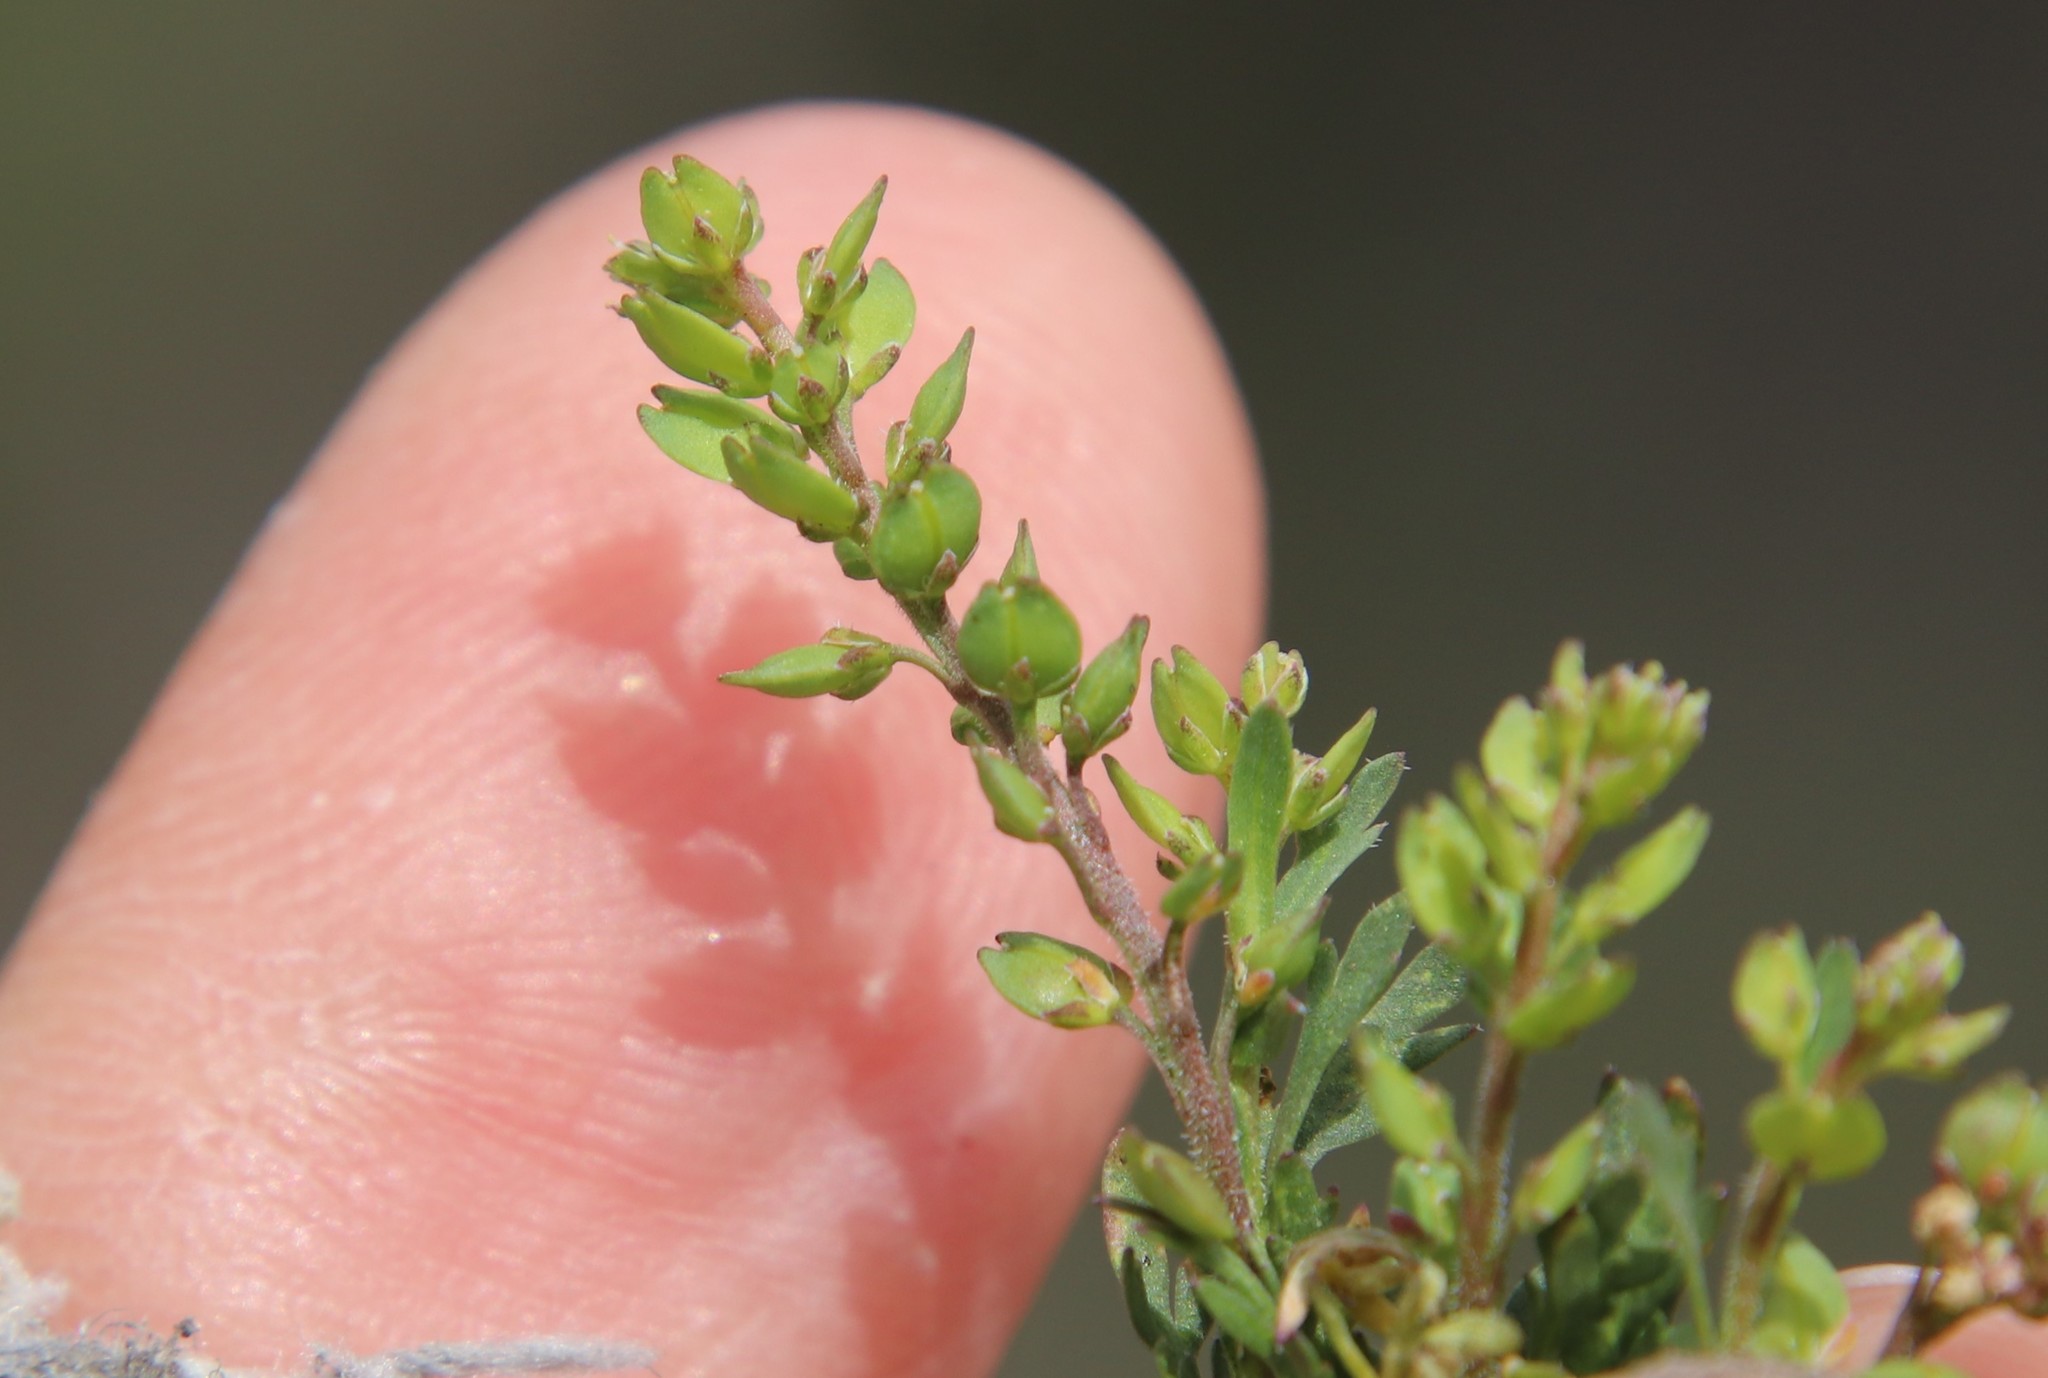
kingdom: Plantae
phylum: Tracheophyta
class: Magnoliopsida
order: Brassicales
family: Brassicaceae
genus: Lepidium
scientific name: Lepidium strictum
